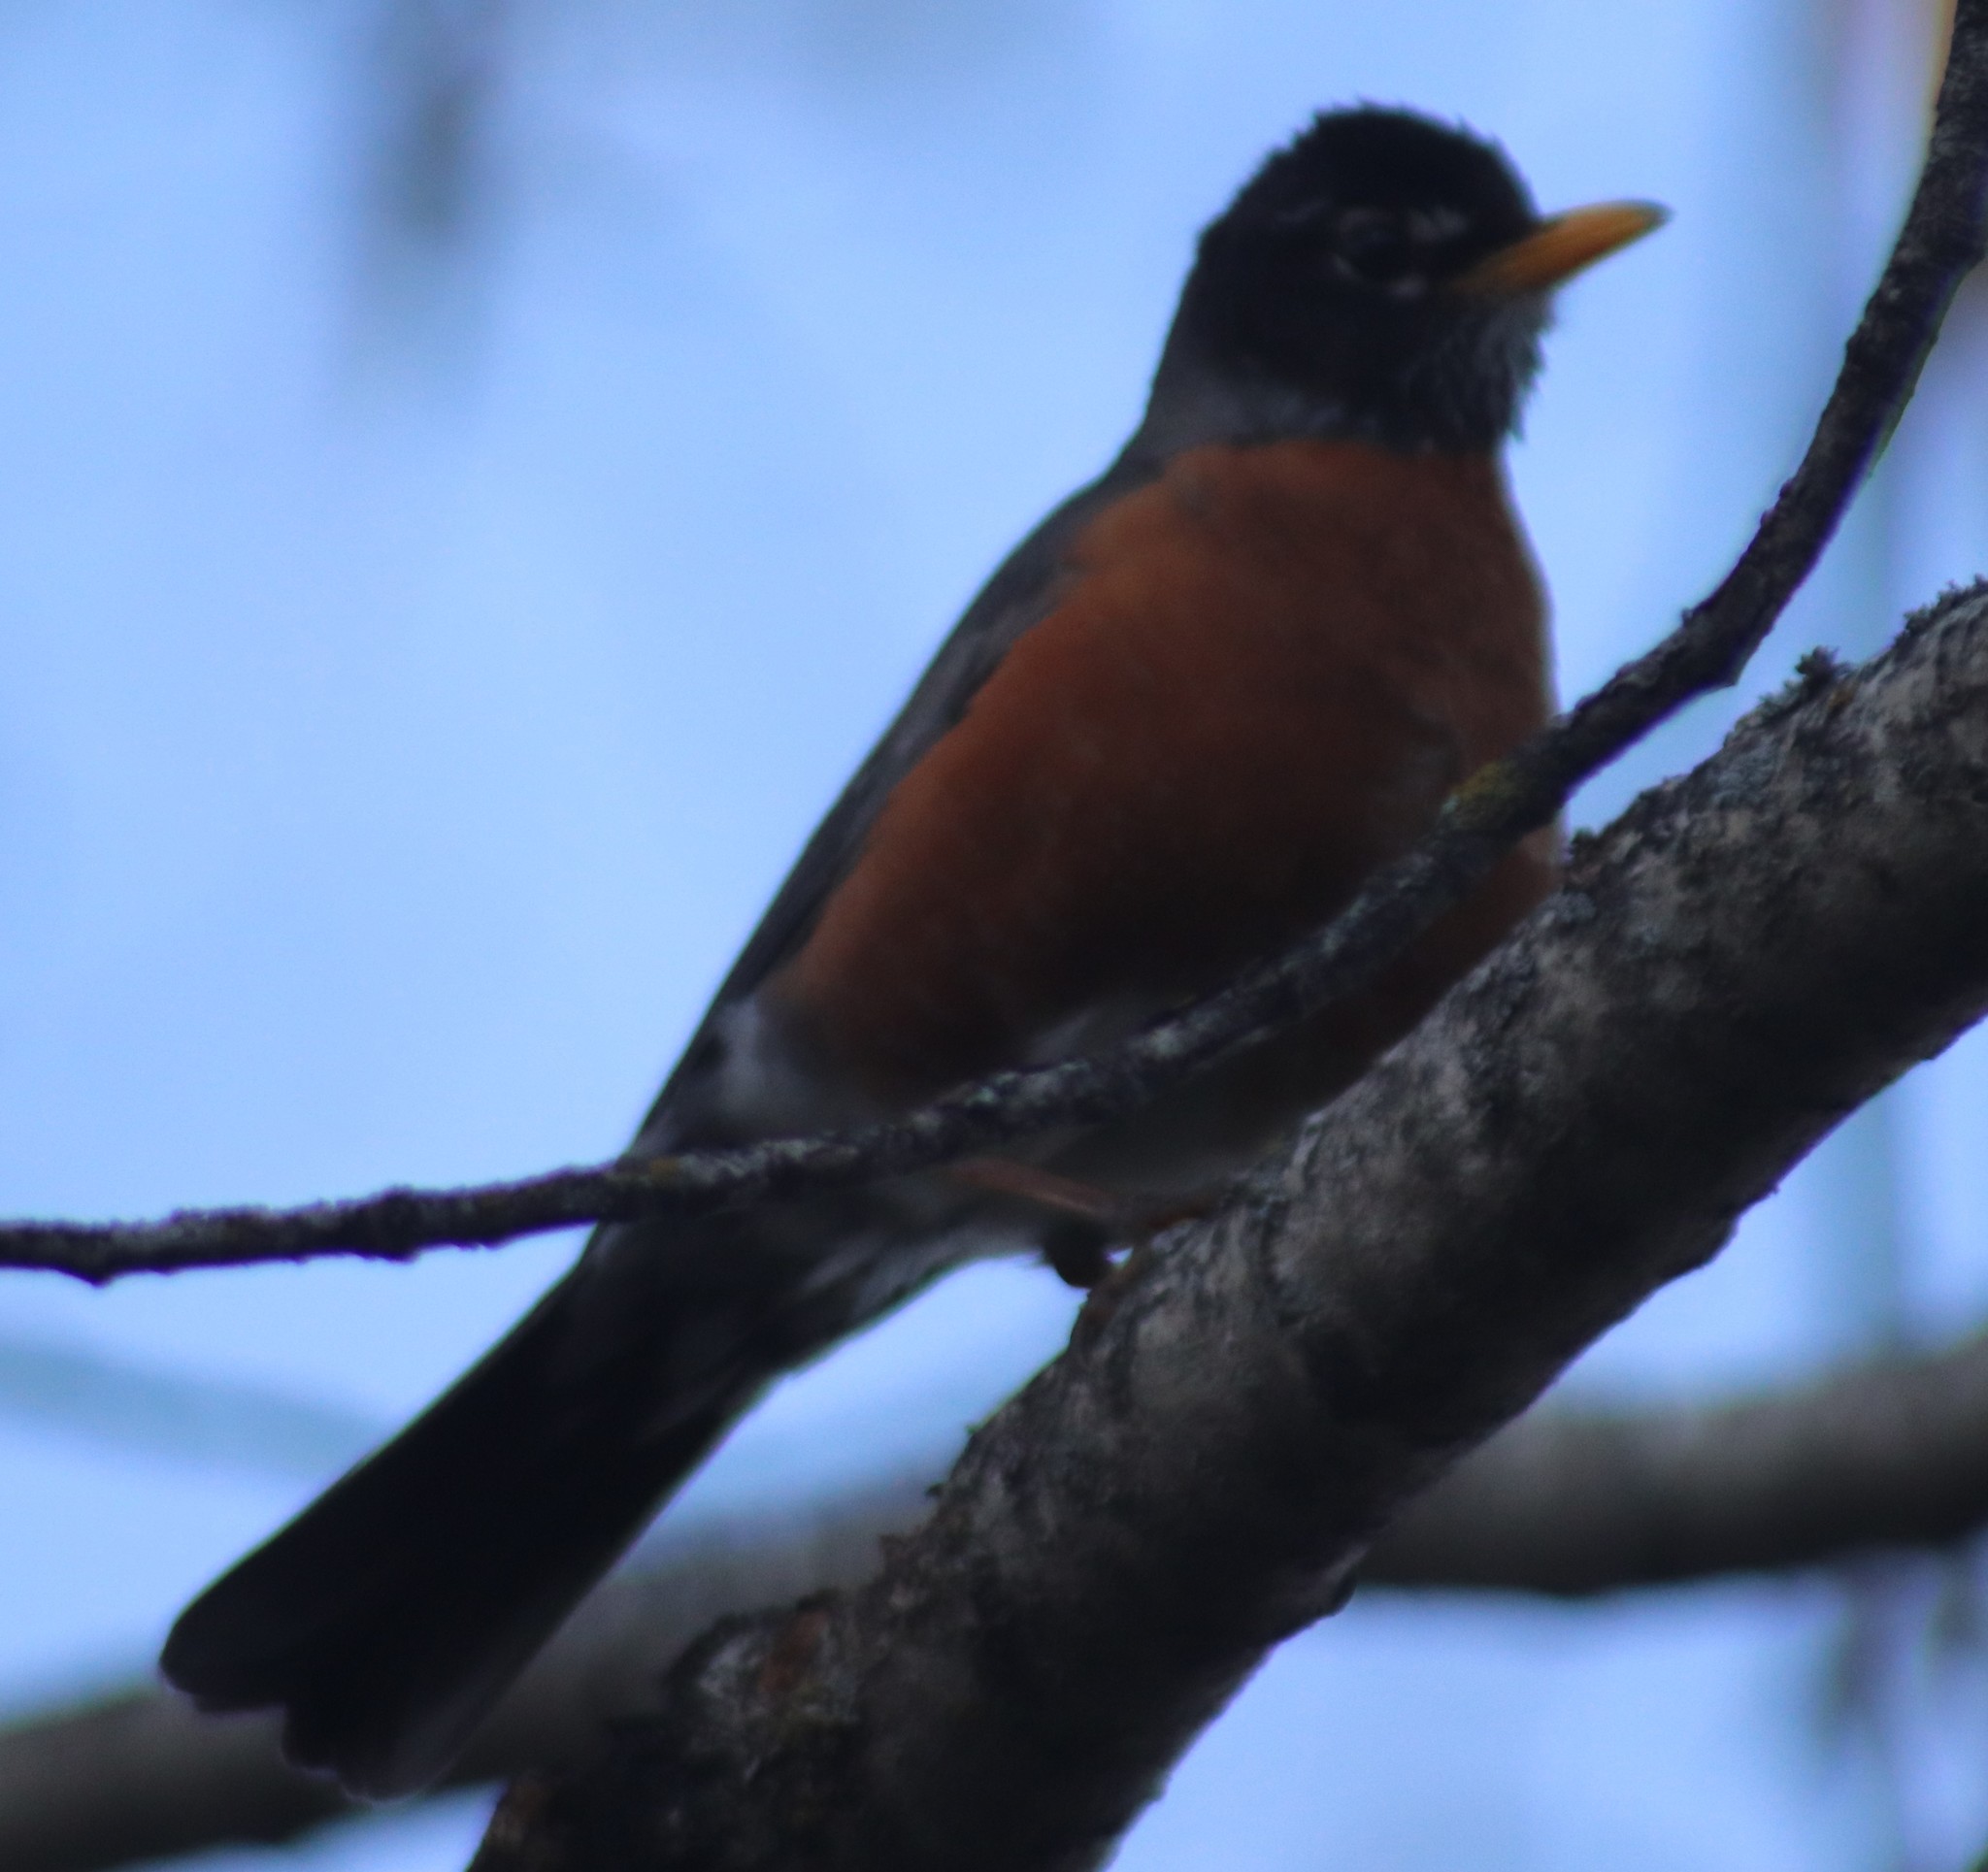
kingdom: Animalia
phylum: Chordata
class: Aves
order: Passeriformes
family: Turdidae
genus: Turdus
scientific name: Turdus migratorius
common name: American robin
